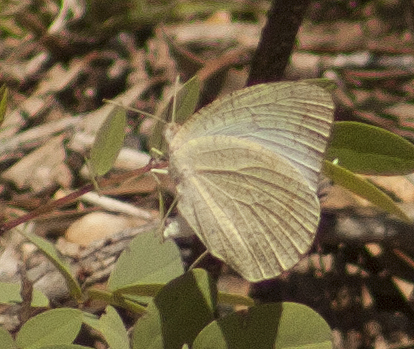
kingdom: Animalia
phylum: Arthropoda
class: Insecta
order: Lepidoptera
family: Pieridae
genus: Catopsilia
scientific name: Catopsilia pyranthe
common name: Mottled emigrant
